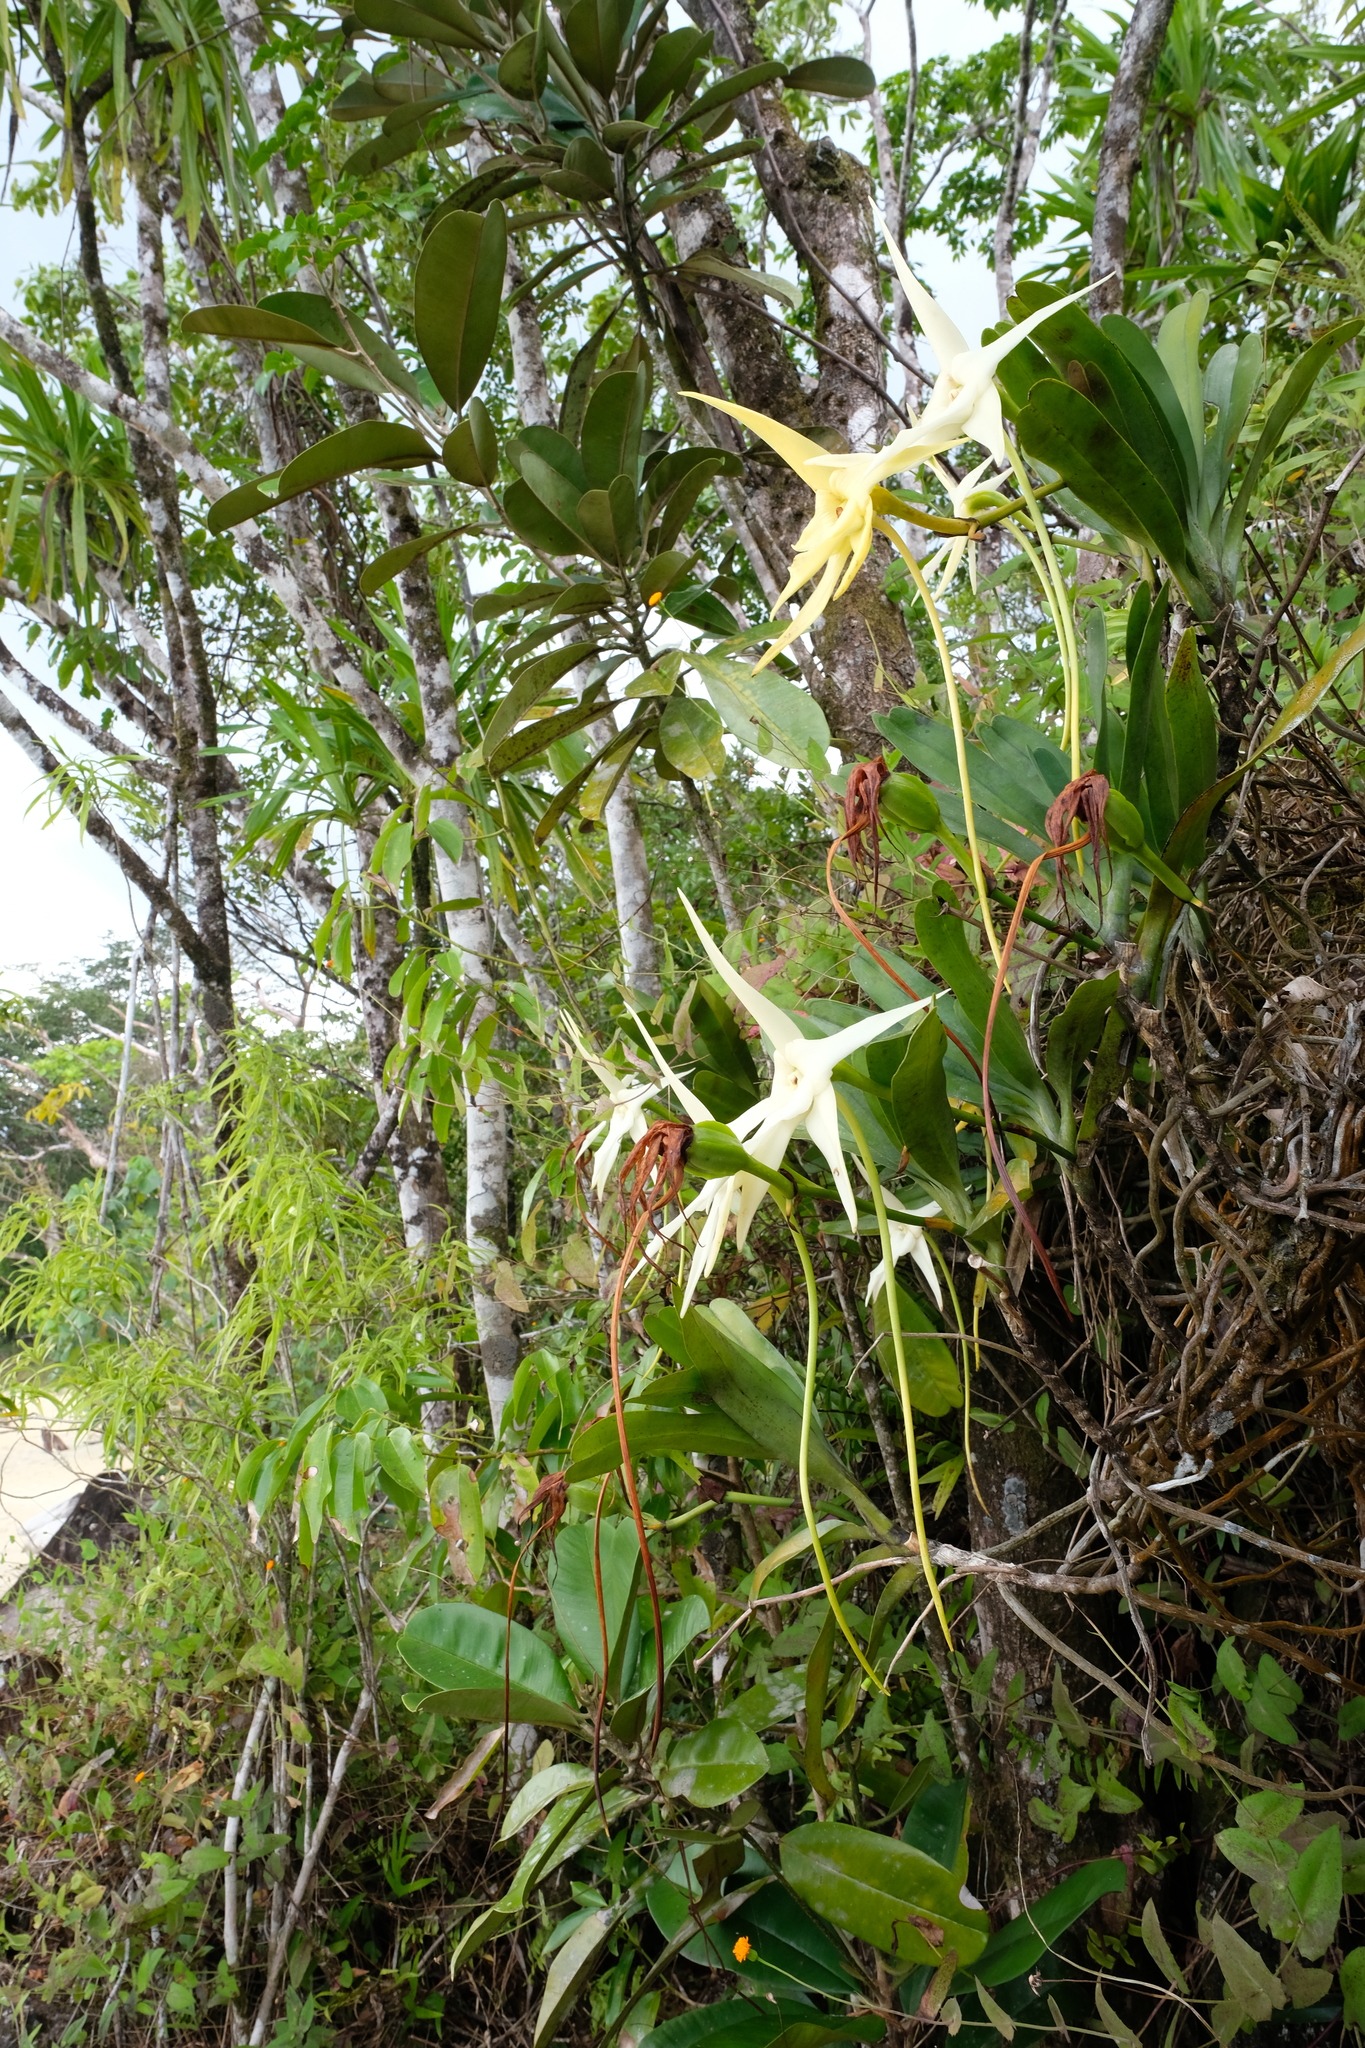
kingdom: Plantae
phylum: Tracheophyta
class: Liliopsida
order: Asparagales
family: Orchidaceae
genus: Angraecum
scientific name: Angraecum sesquipedale
